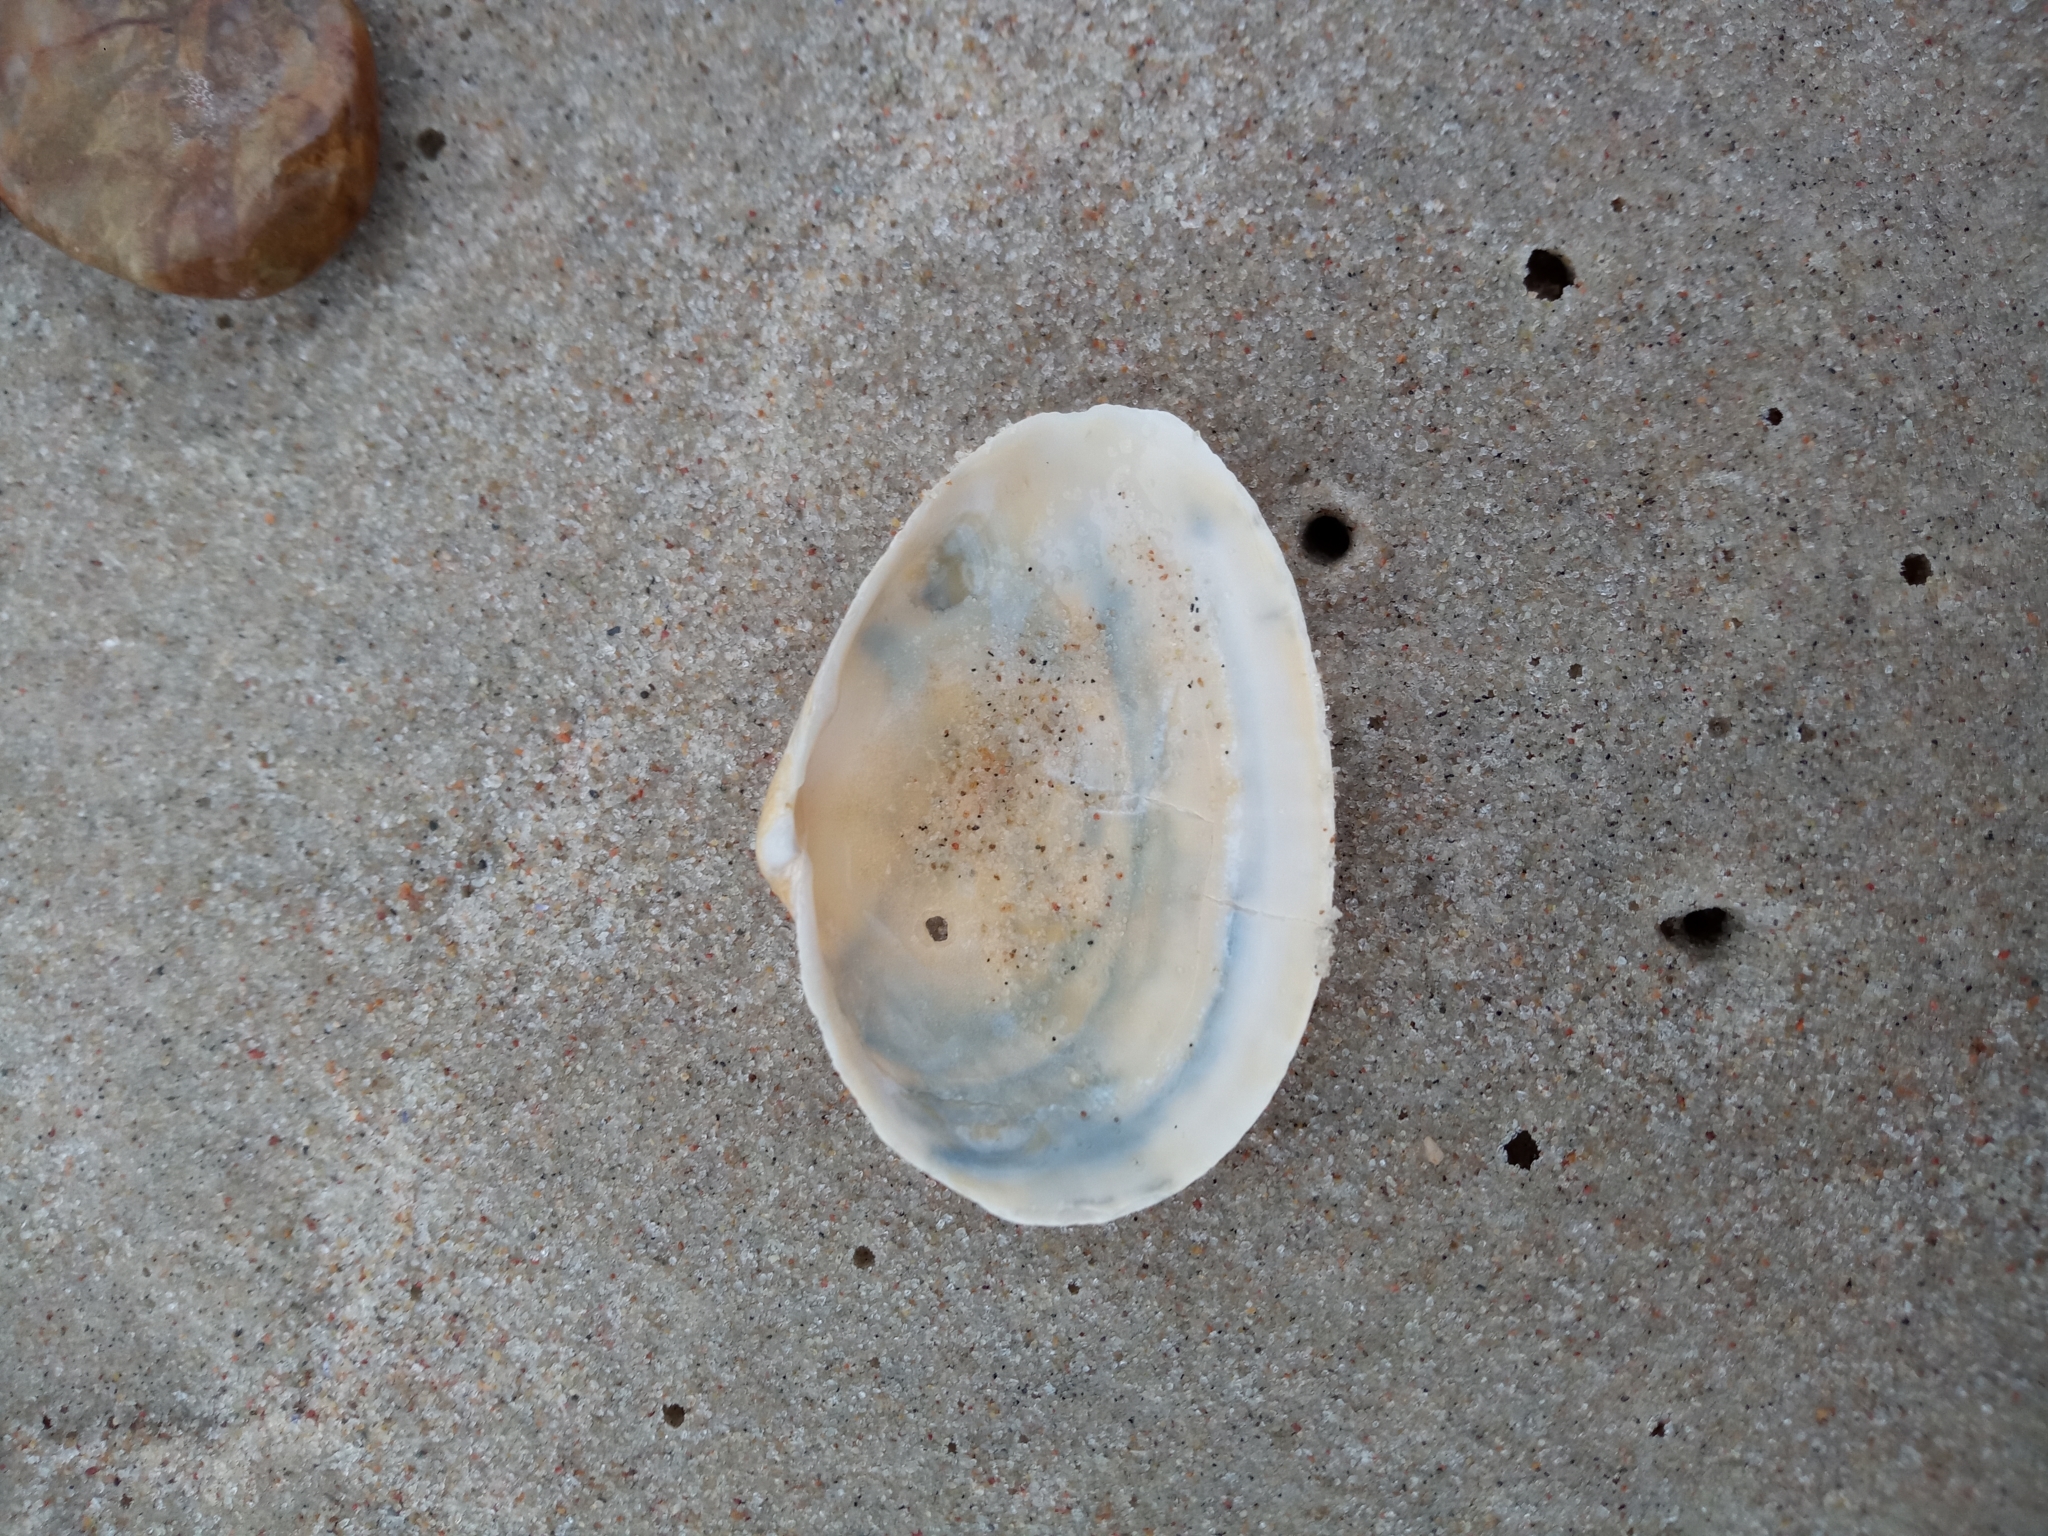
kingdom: Animalia
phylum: Mollusca
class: Bivalvia
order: Myida
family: Myidae
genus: Mya
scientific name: Mya arenaria
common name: Soft-shelled clam
